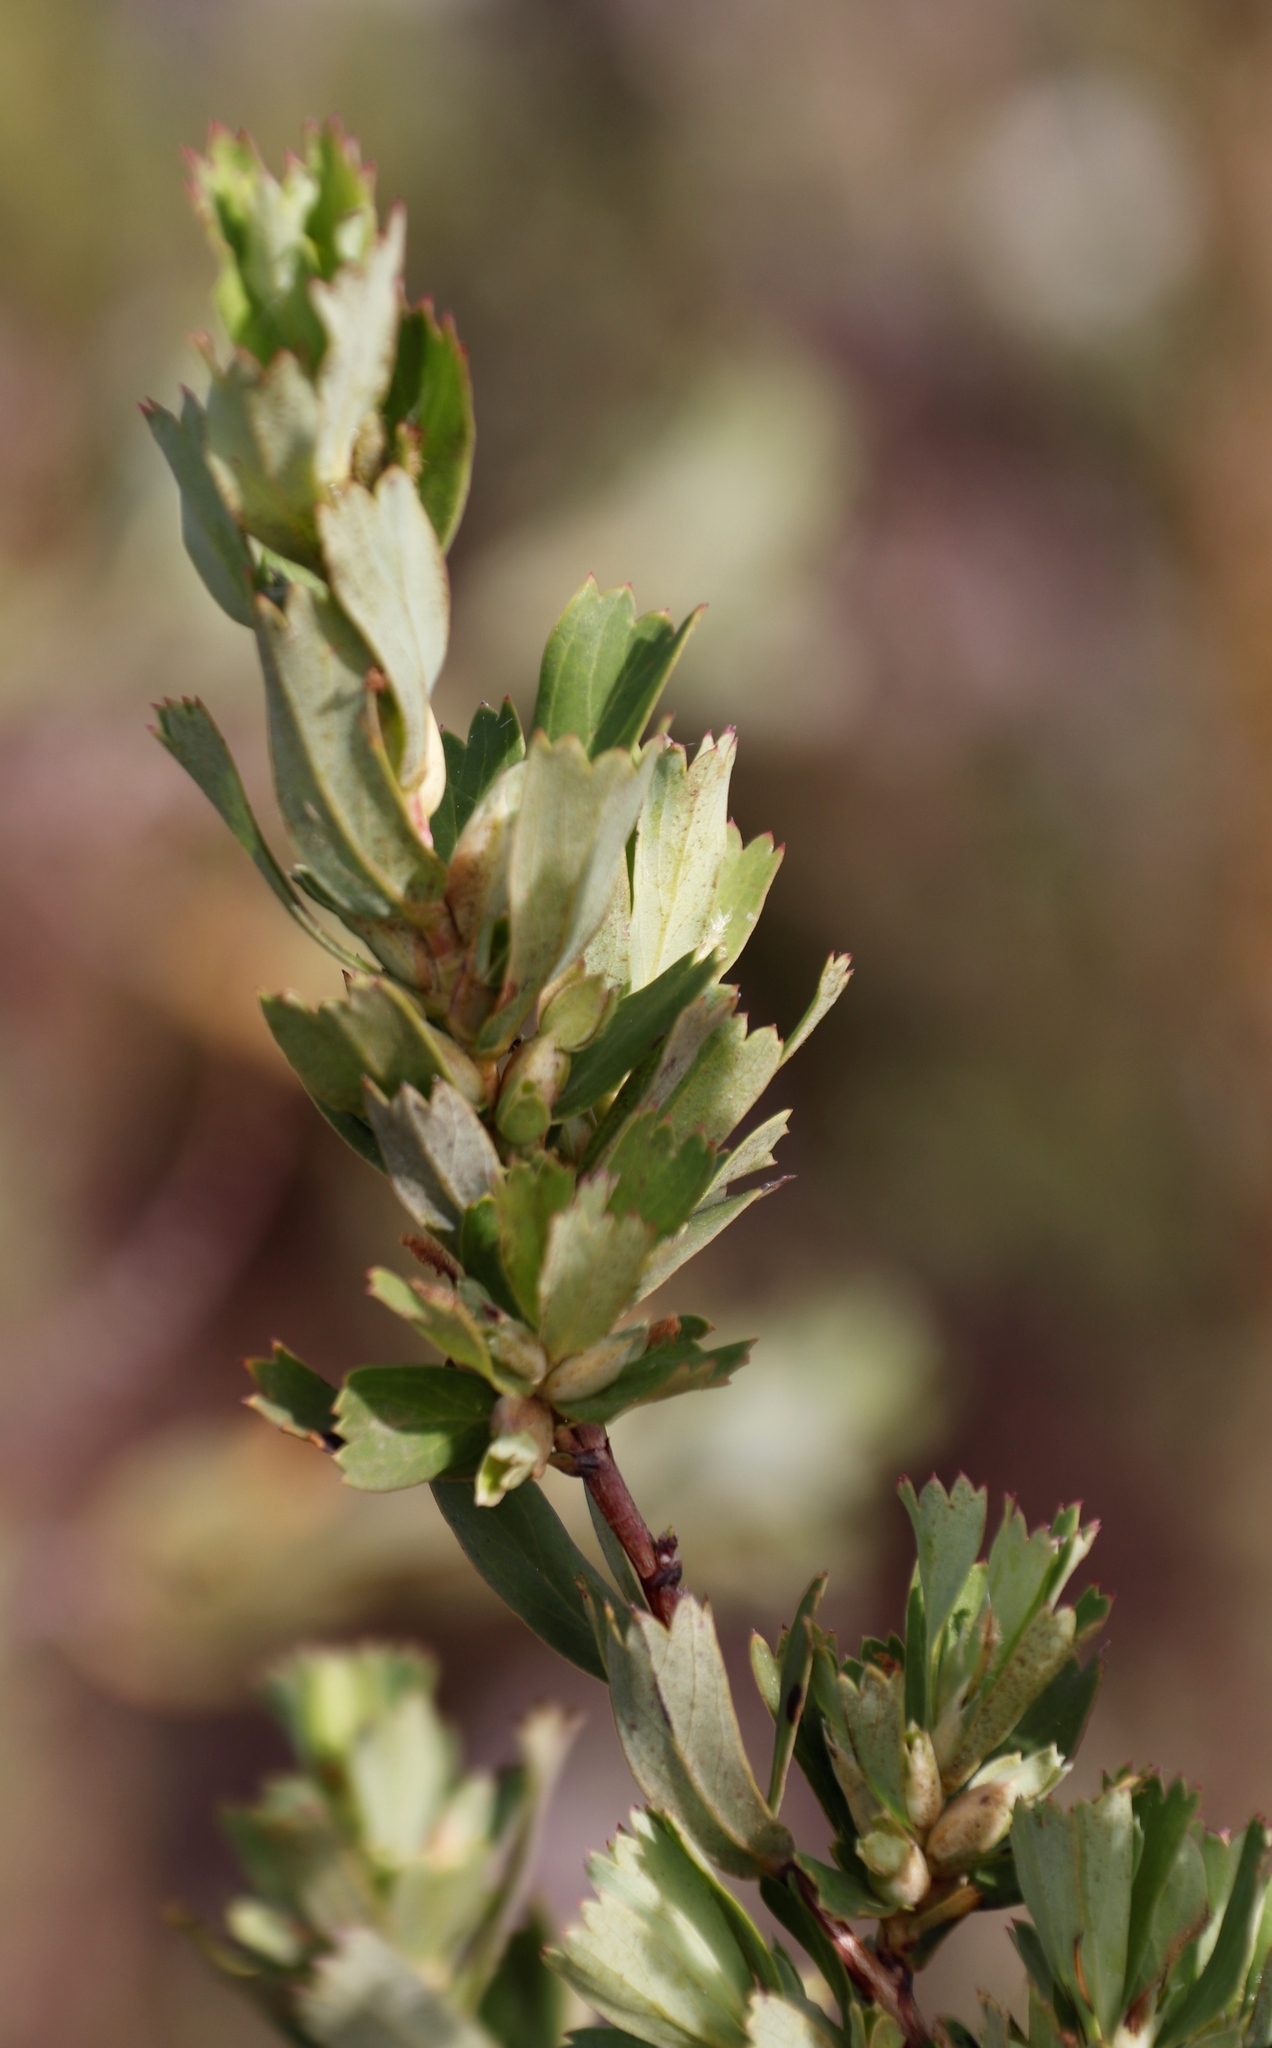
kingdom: Plantae
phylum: Tracheophyta
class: Magnoliopsida
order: Rosales
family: Rosaceae
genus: Cliffortia
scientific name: Cliffortia cuneata
